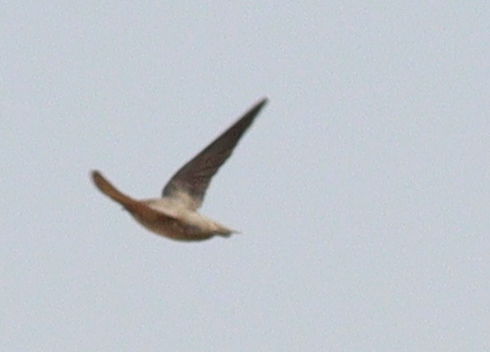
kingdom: Animalia
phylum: Chordata
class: Aves
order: Passeriformes
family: Hirundinidae
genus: Ptyonoprogne
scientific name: Ptyonoprogne fuligula
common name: Rock martin
